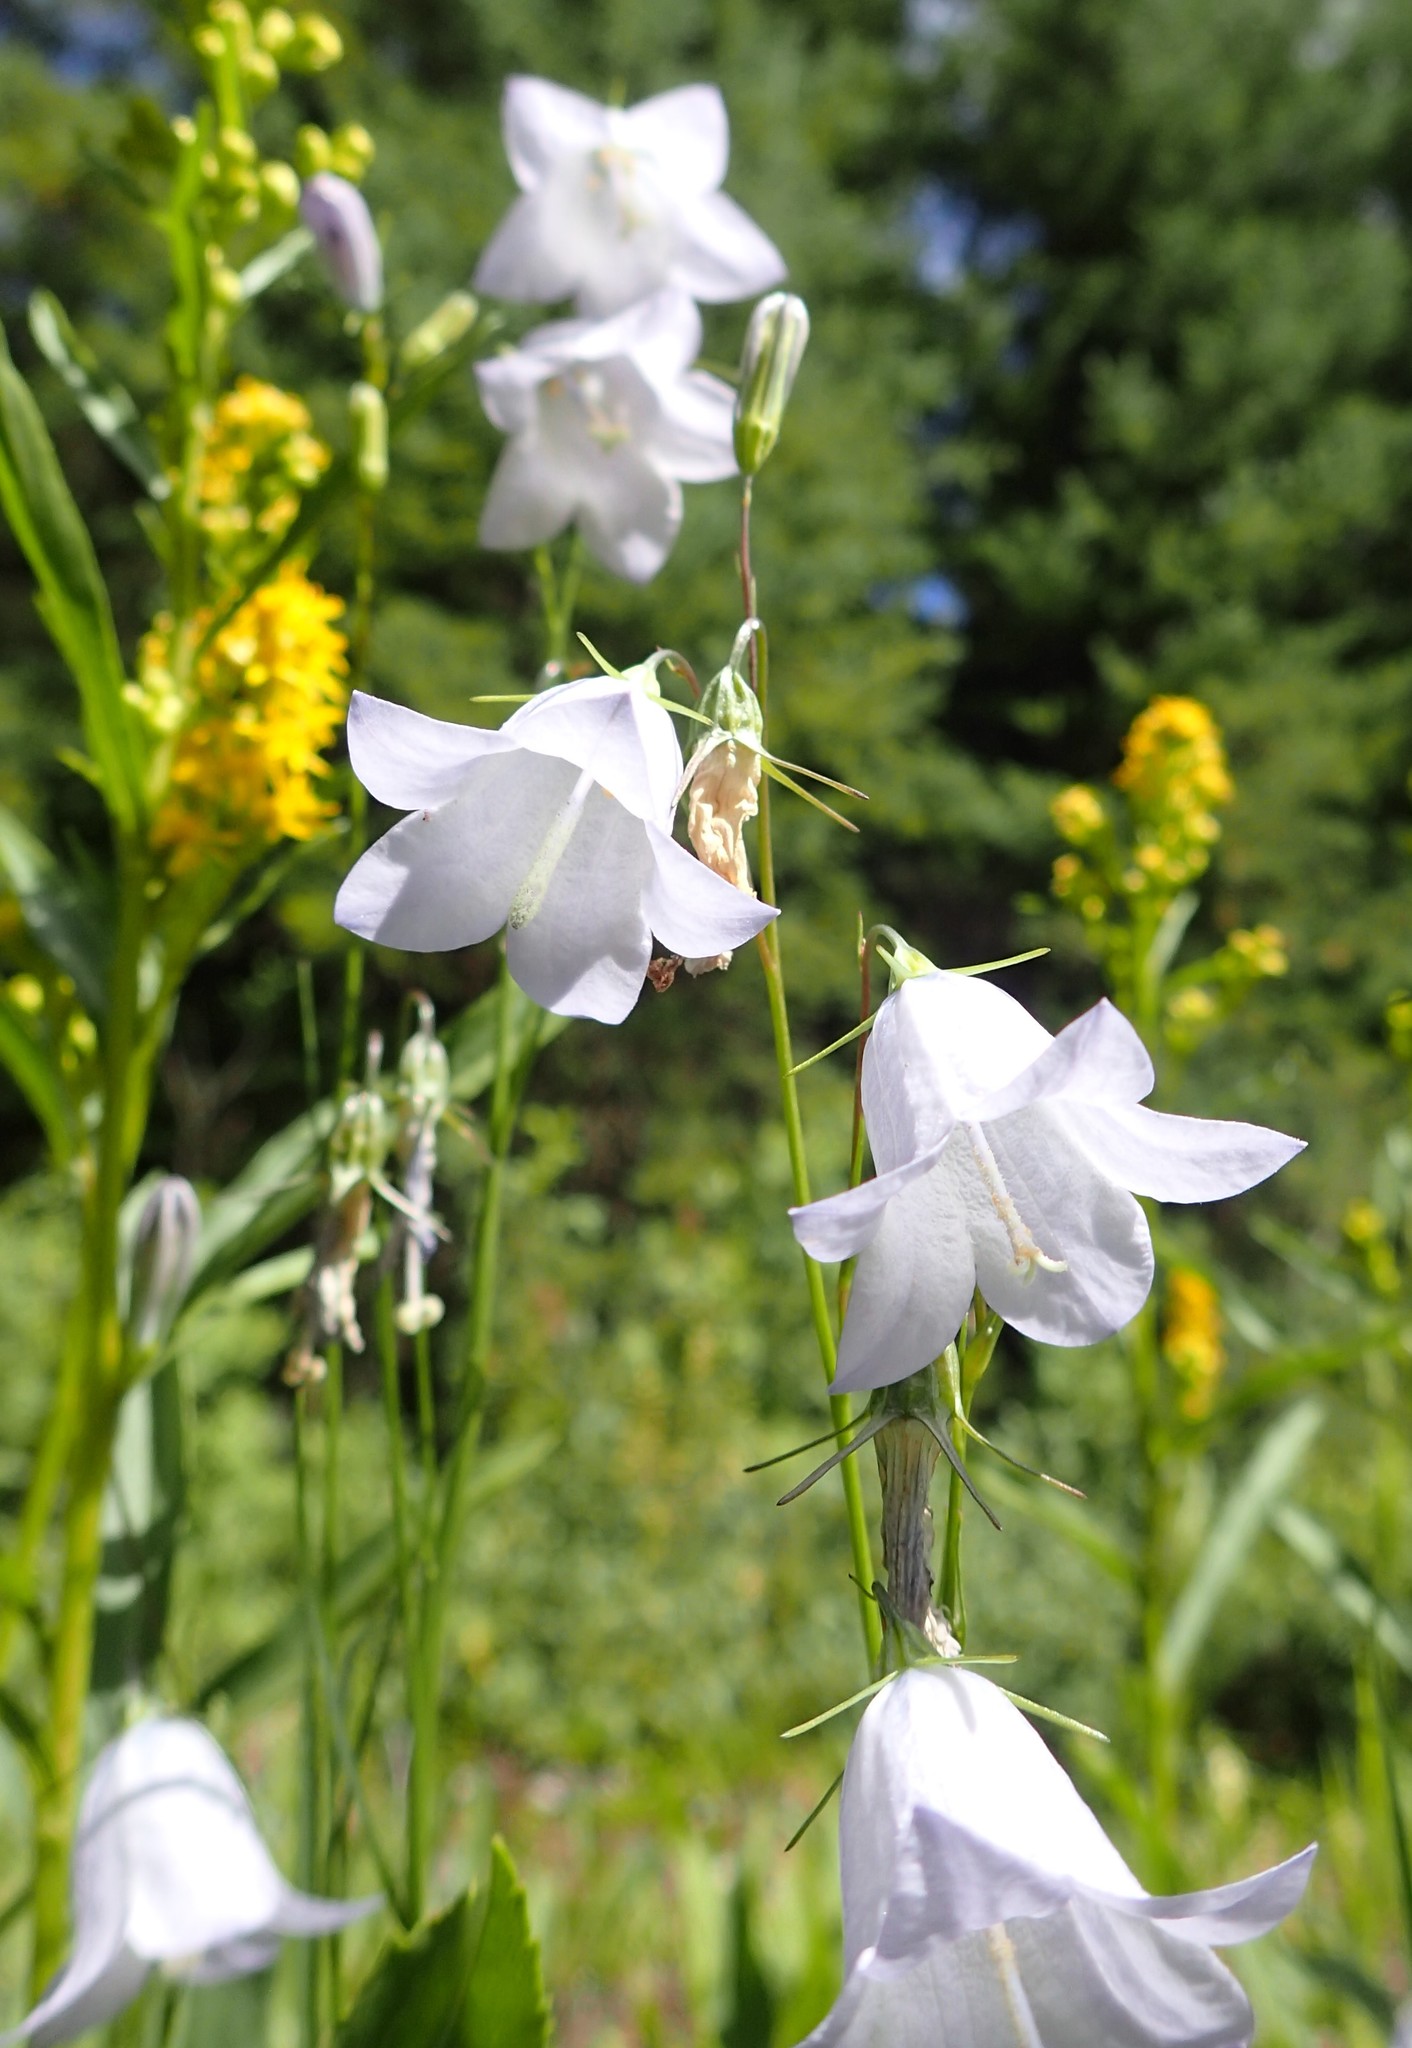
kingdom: Plantae
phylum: Tracheophyta
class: Magnoliopsida
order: Asterales
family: Campanulaceae
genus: Campanula
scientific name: Campanula alaskana
